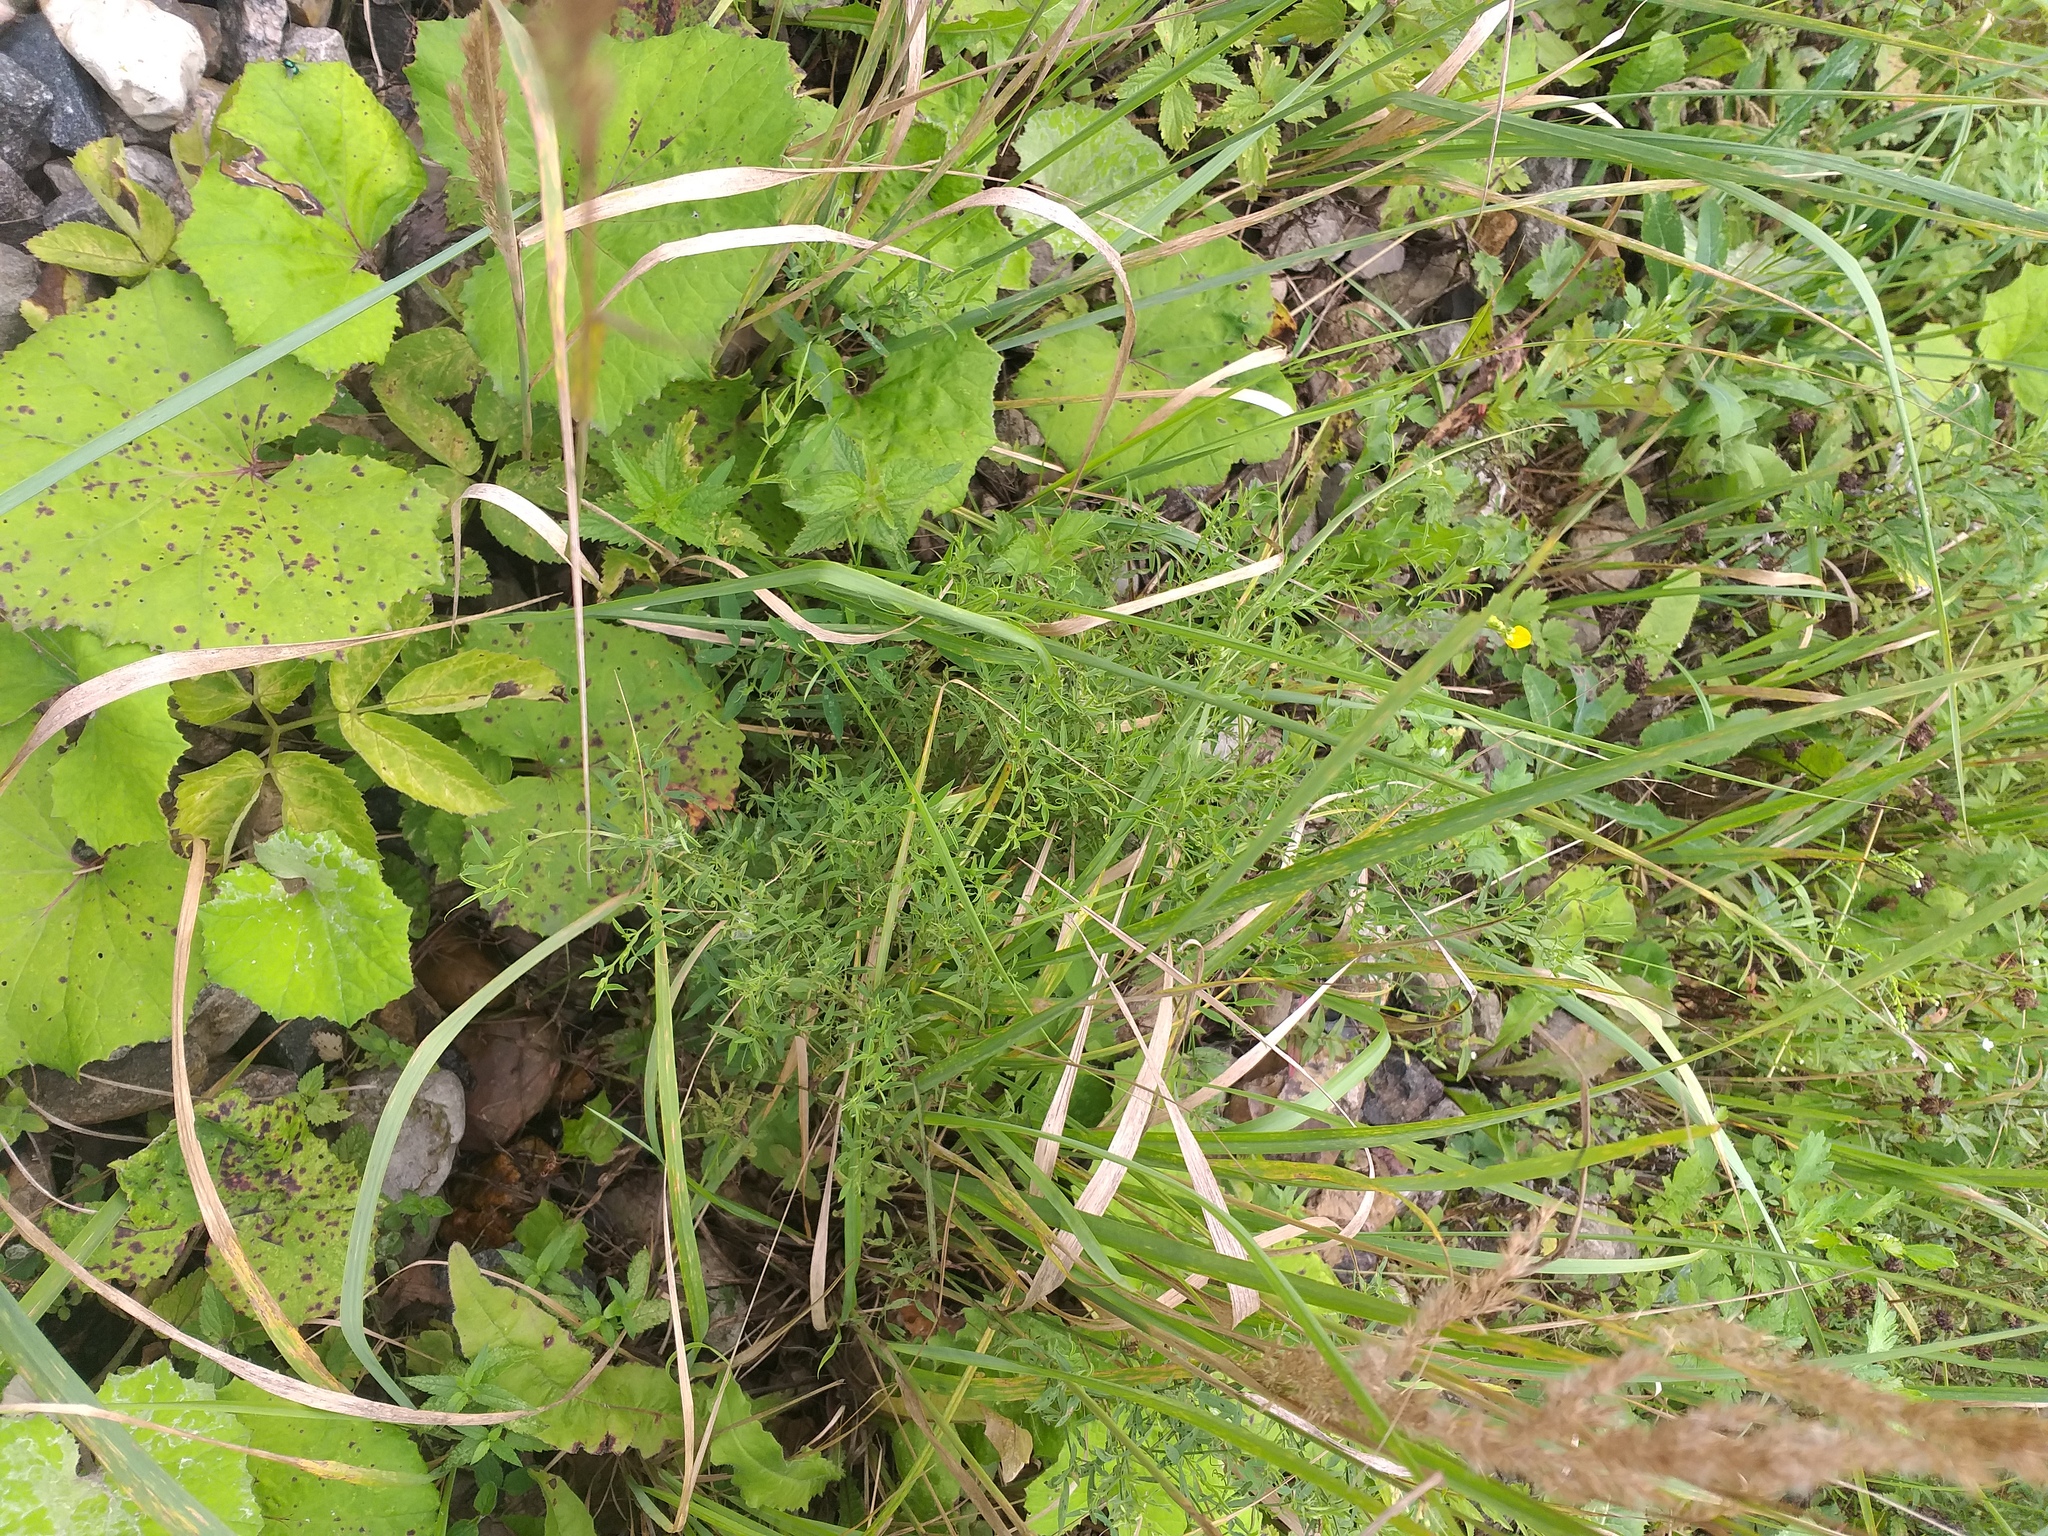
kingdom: Plantae
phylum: Tracheophyta
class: Magnoliopsida
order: Fabales
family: Fabaceae
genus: Lathyrus
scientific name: Lathyrus pratensis
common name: Meadow vetchling
